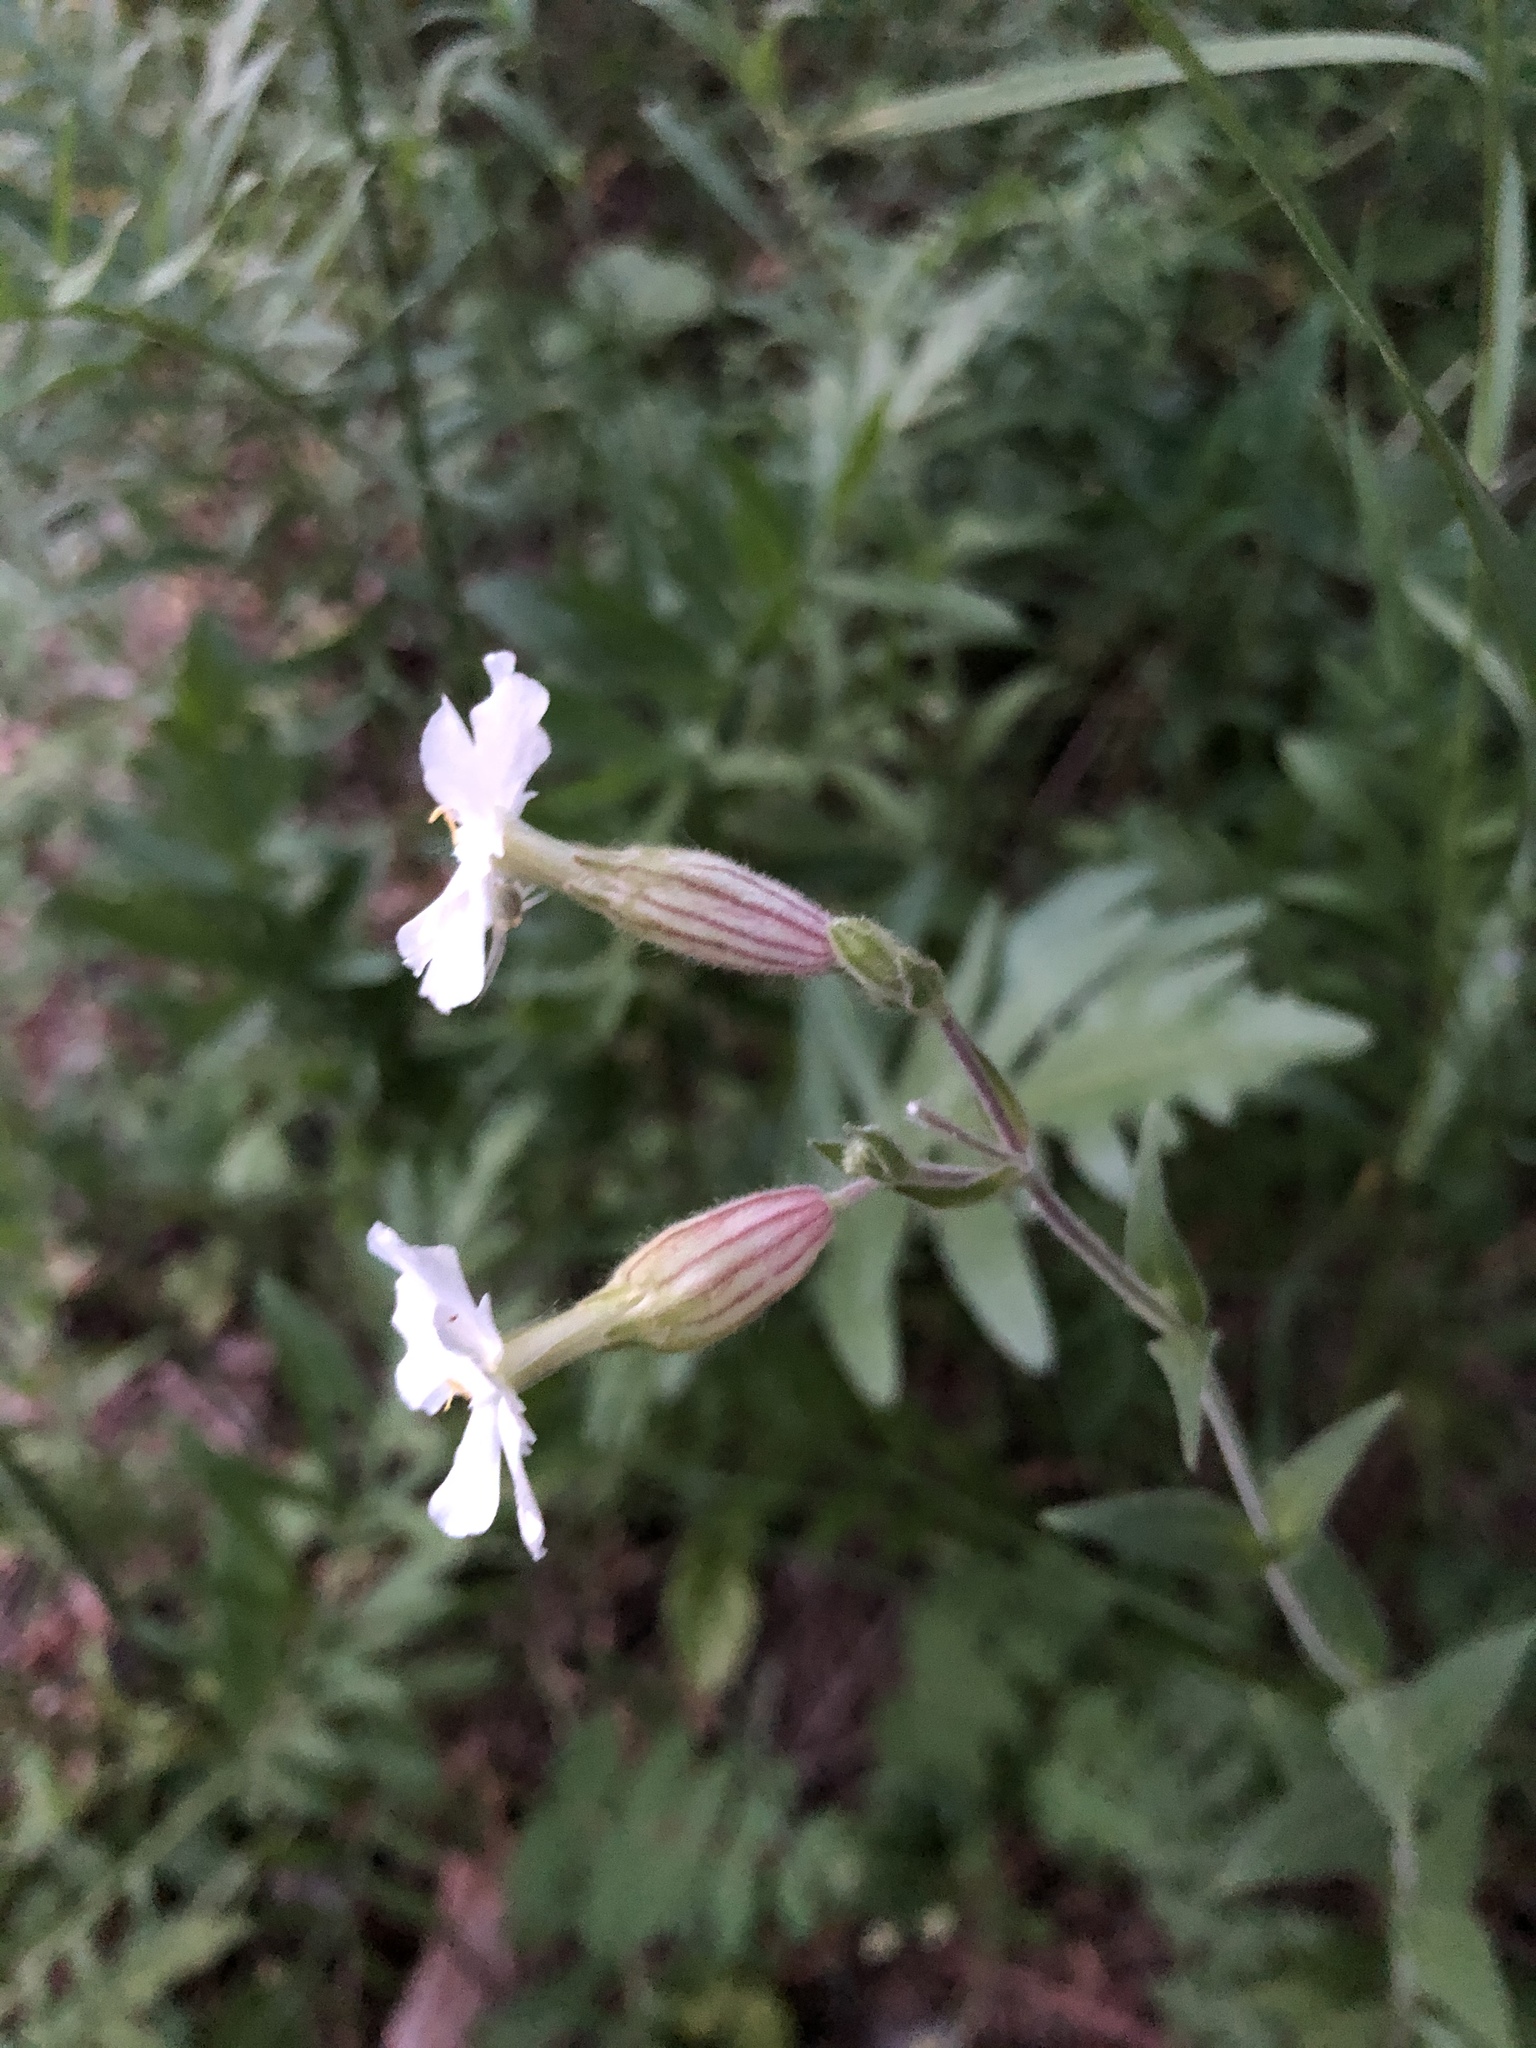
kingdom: Plantae
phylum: Tracheophyta
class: Magnoliopsida
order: Caryophyllales
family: Caryophyllaceae
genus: Silene
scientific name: Silene latifolia
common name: White campion
